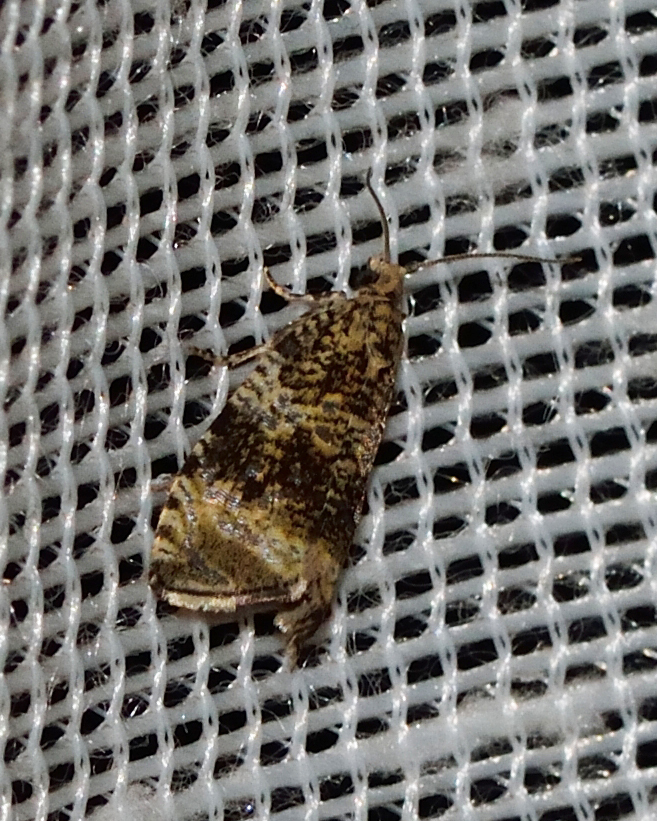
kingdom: Animalia
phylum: Arthropoda
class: Insecta
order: Lepidoptera
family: Tortricidae
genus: Syricoris
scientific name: Syricoris lacunana
